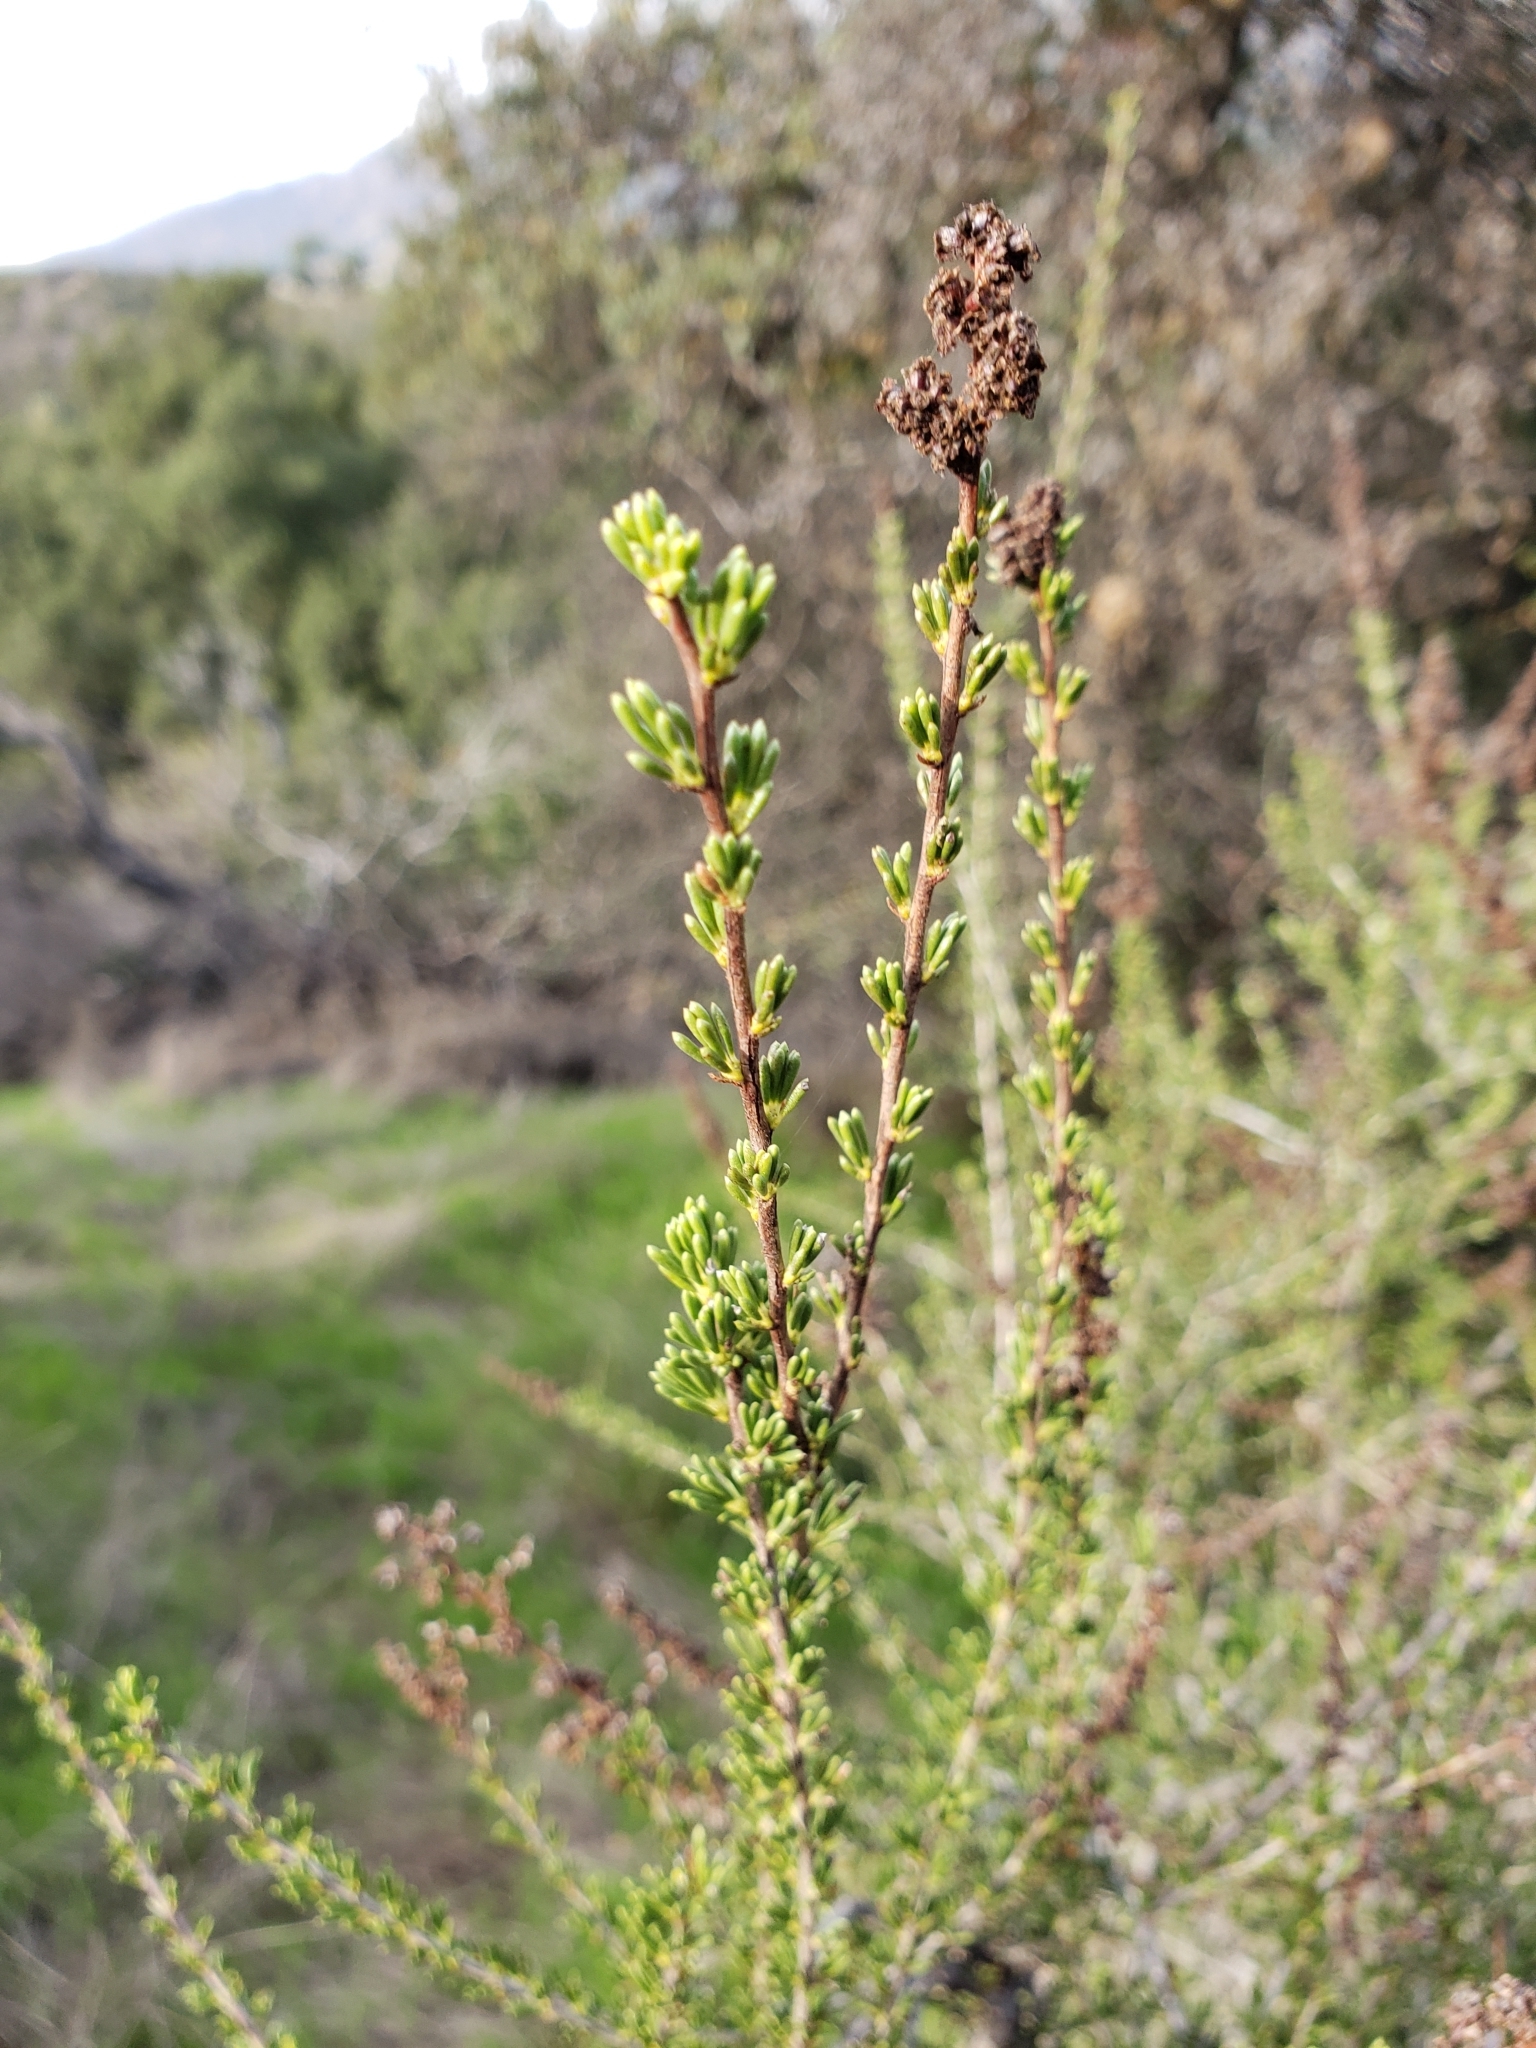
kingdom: Plantae
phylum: Tracheophyta
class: Magnoliopsida
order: Rosales
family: Rosaceae
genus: Adenostoma
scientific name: Adenostoma fasciculatum
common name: Chamise
